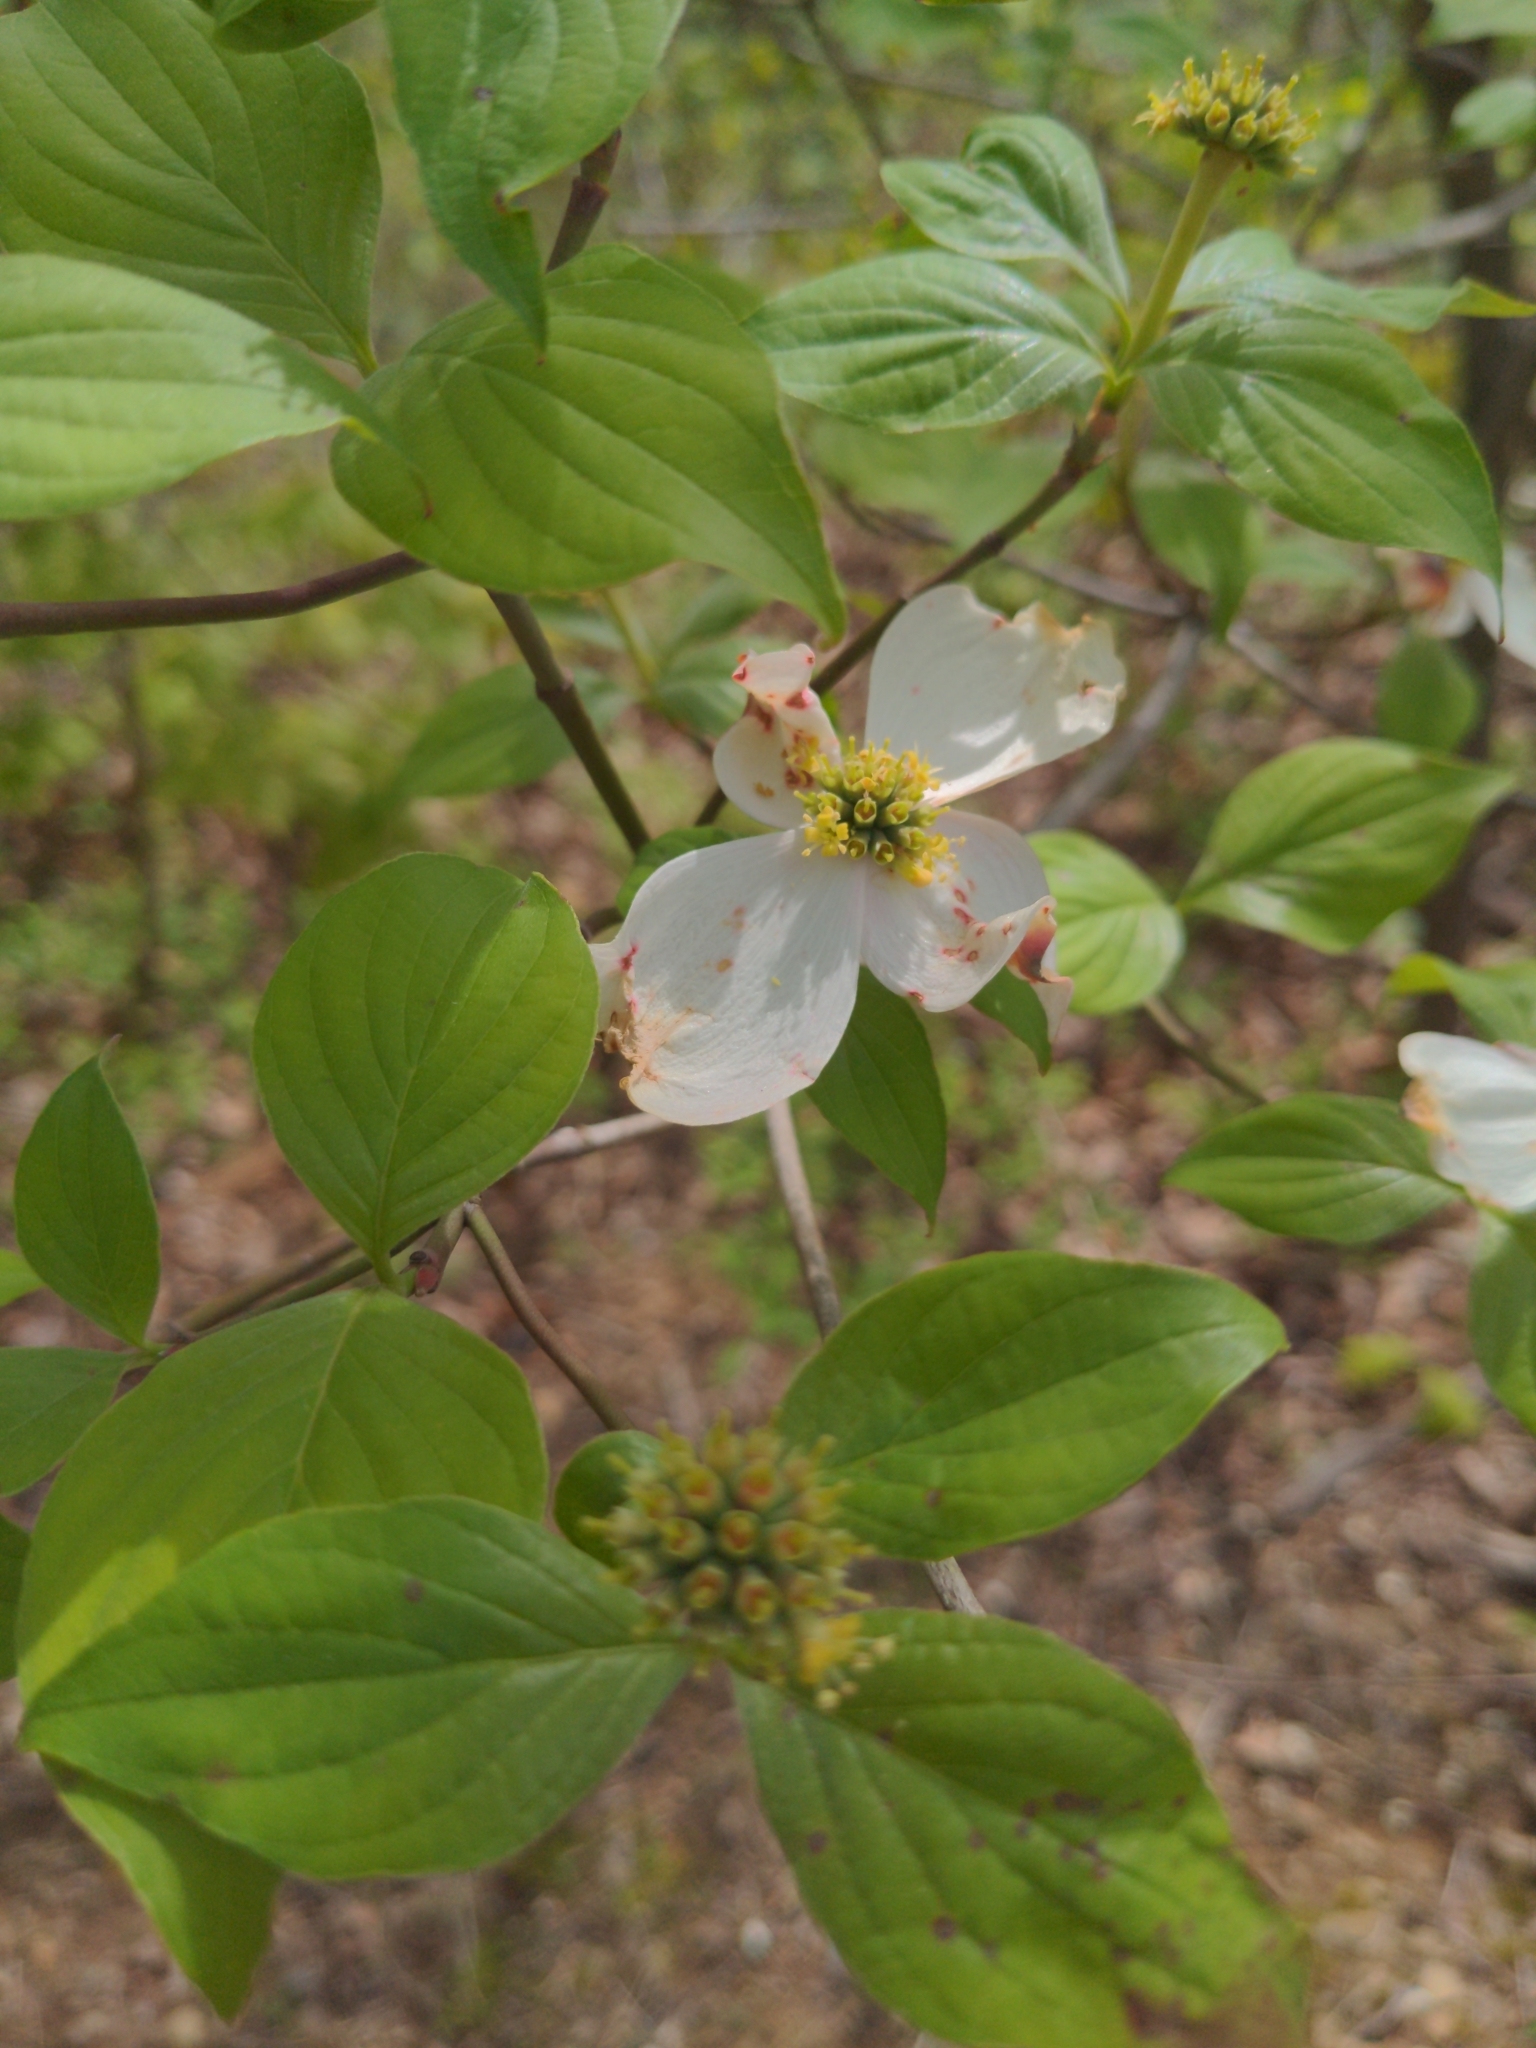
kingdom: Plantae
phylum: Tracheophyta
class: Magnoliopsida
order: Cornales
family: Cornaceae
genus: Cornus
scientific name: Cornus florida
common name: Flowering dogwood
